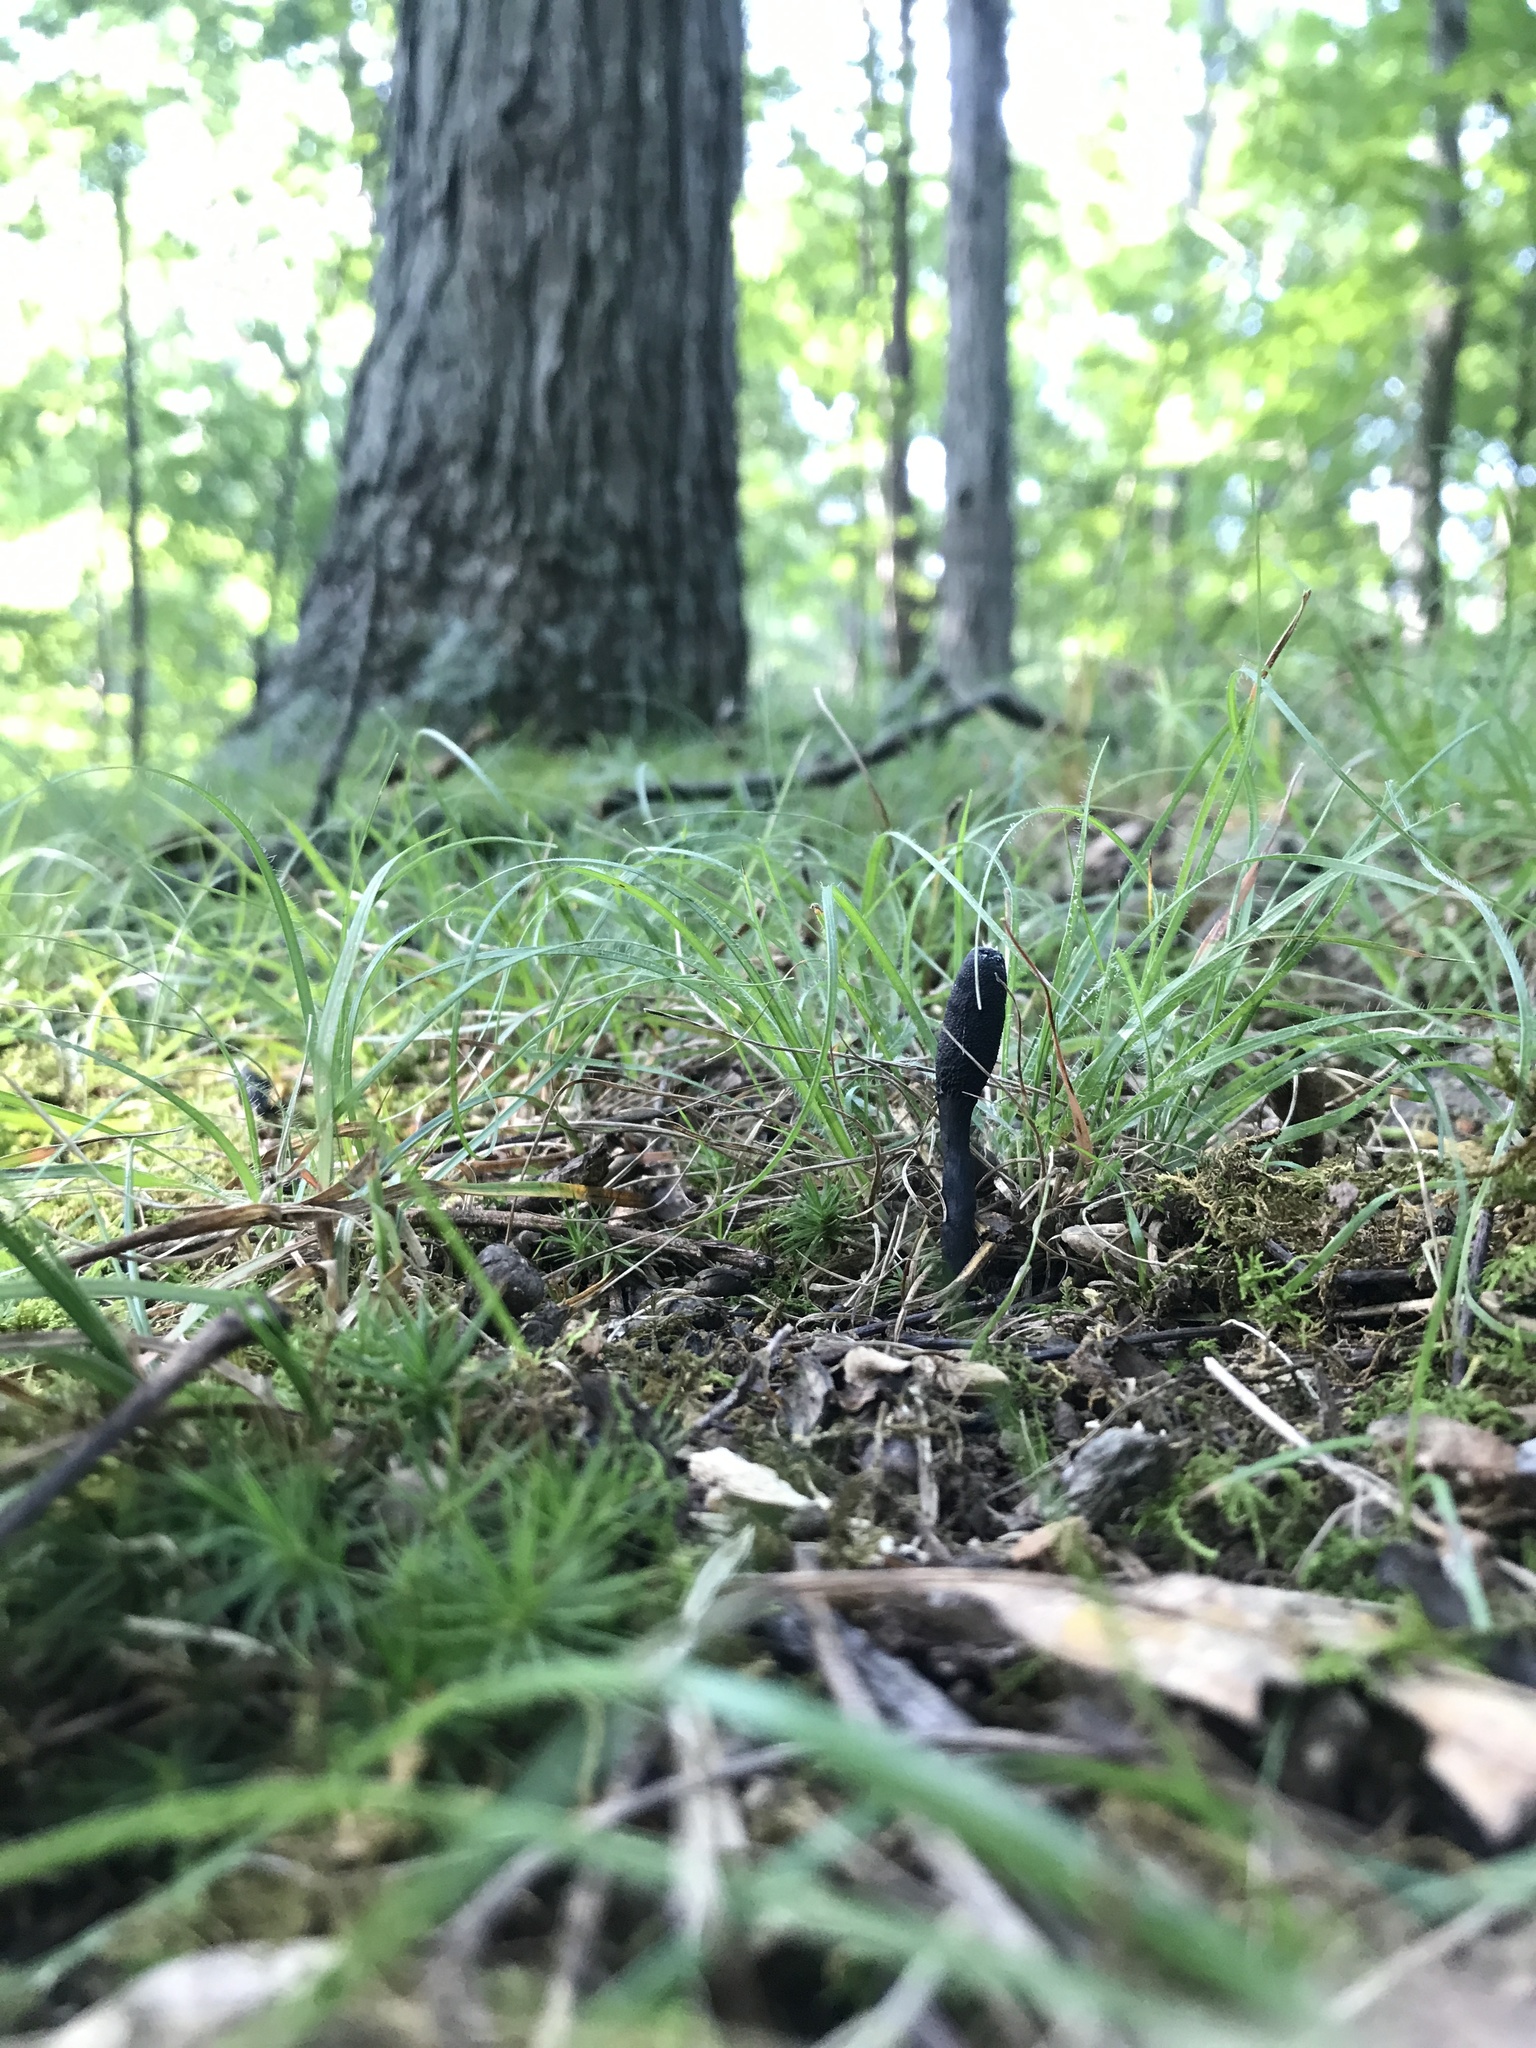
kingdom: Fungi
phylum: Ascomycota
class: Sordariomycetes
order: Hypocreales
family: Ophiocordycipitaceae
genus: Tolypocladium
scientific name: Tolypocladium ophioglossoides
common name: Snaketongue truffleclub
